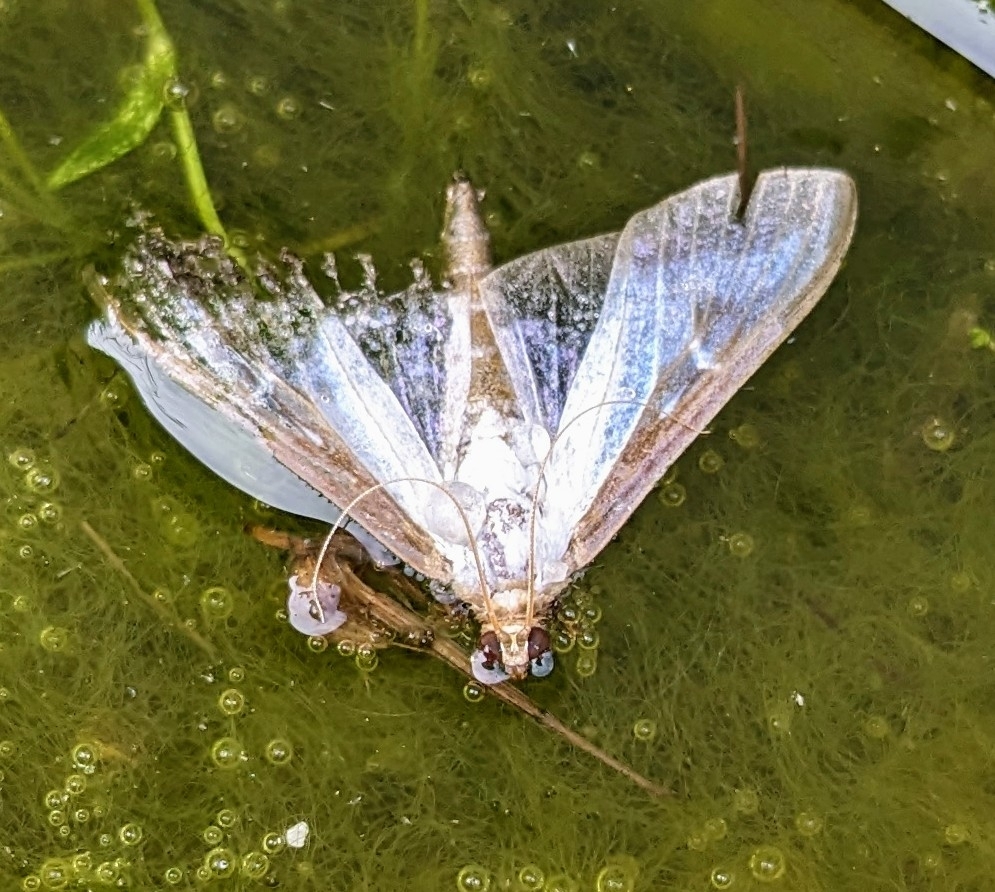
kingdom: Animalia
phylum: Arthropoda
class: Insecta
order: Lepidoptera
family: Crambidae
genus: Cydalima
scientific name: Cydalima perspectalis
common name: Box tree moth
